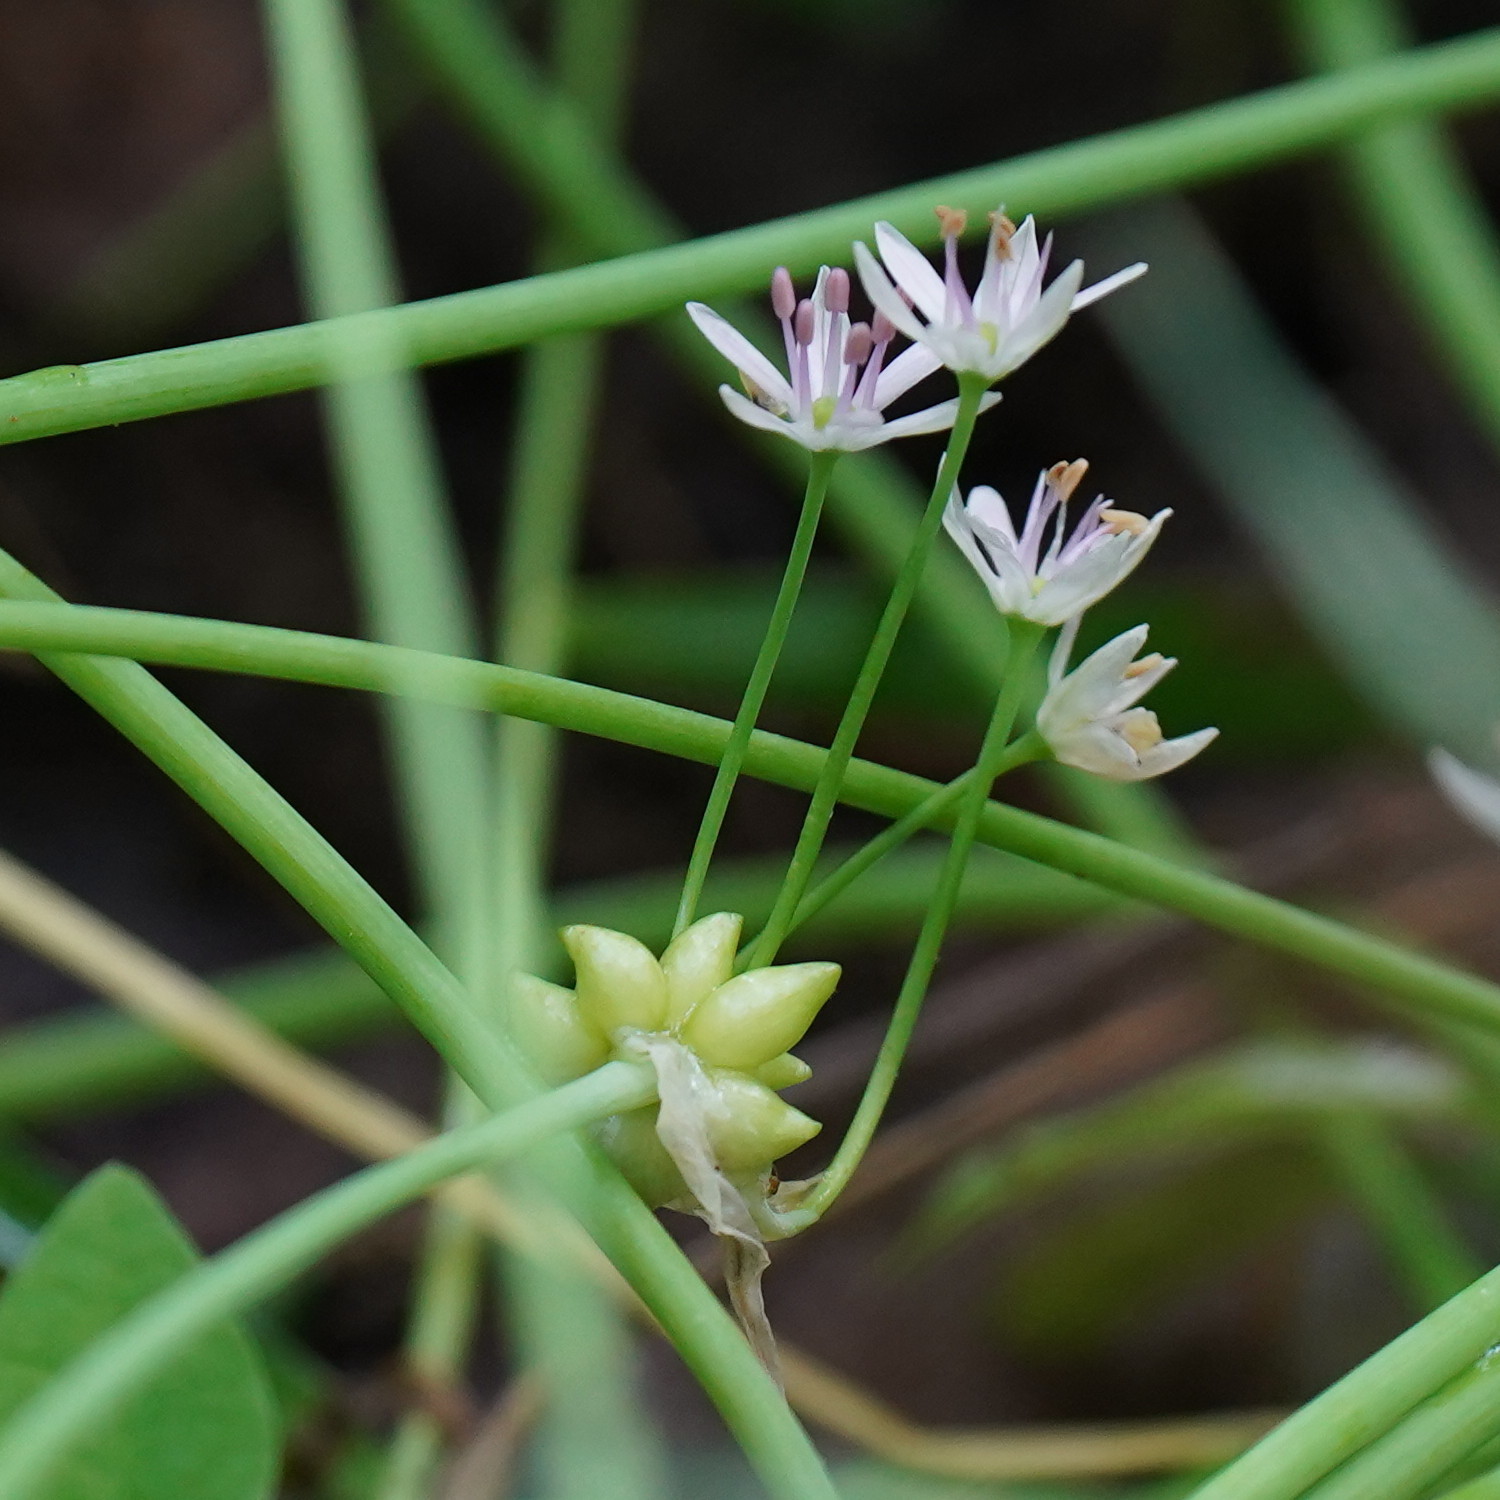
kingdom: Plantae
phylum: Tracheophyta
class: Liliopsida
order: Asparagales
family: Amaryllidaceae
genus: Allium
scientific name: Allium canadense
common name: Meadow garlic
